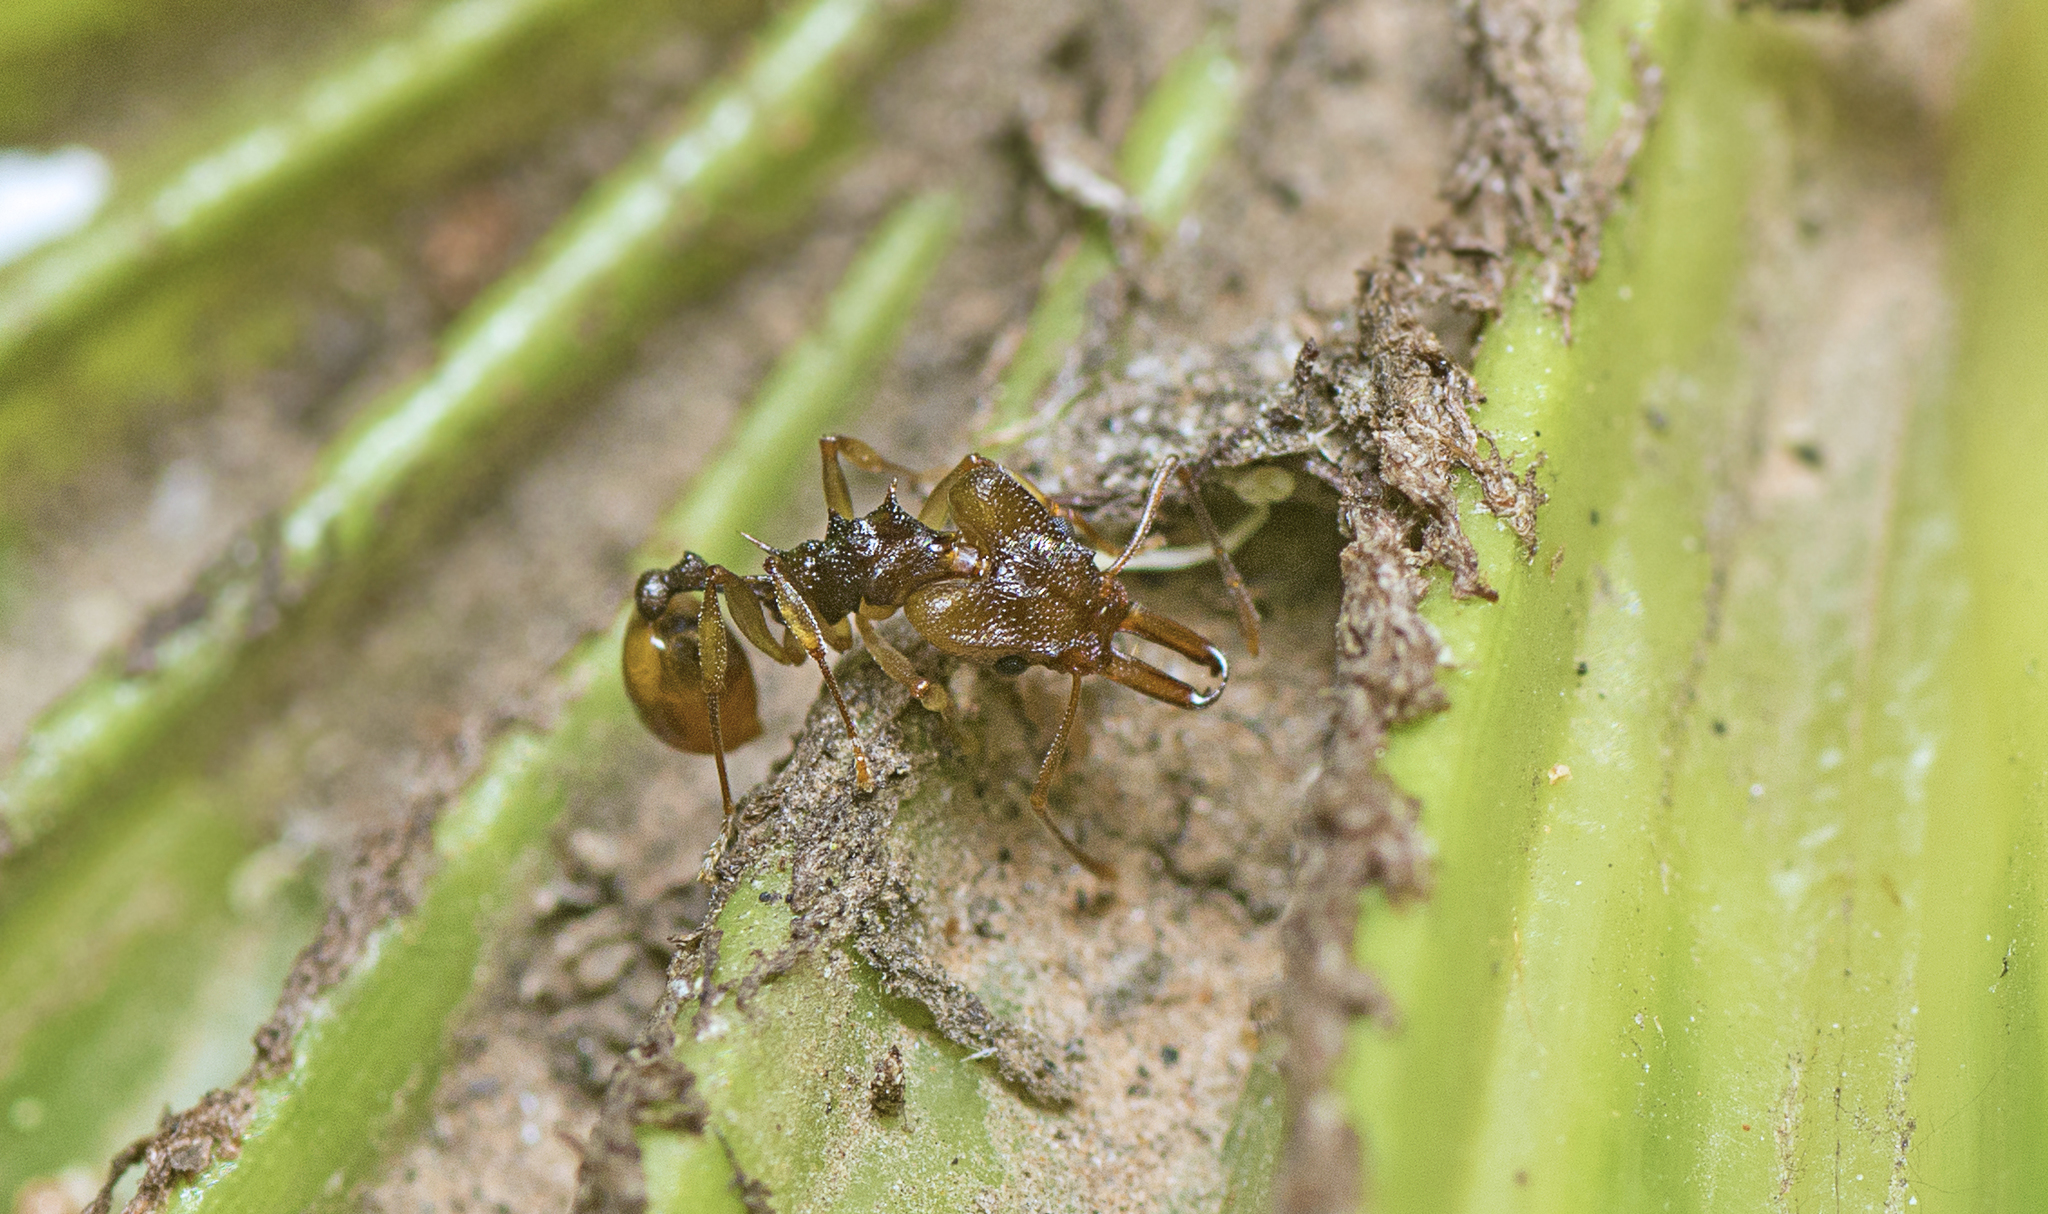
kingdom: Animalia
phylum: Arthropoda
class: Insecta
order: Hymenoptera
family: Formicidae
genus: Orectognathus
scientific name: Orectognathus versicolor
